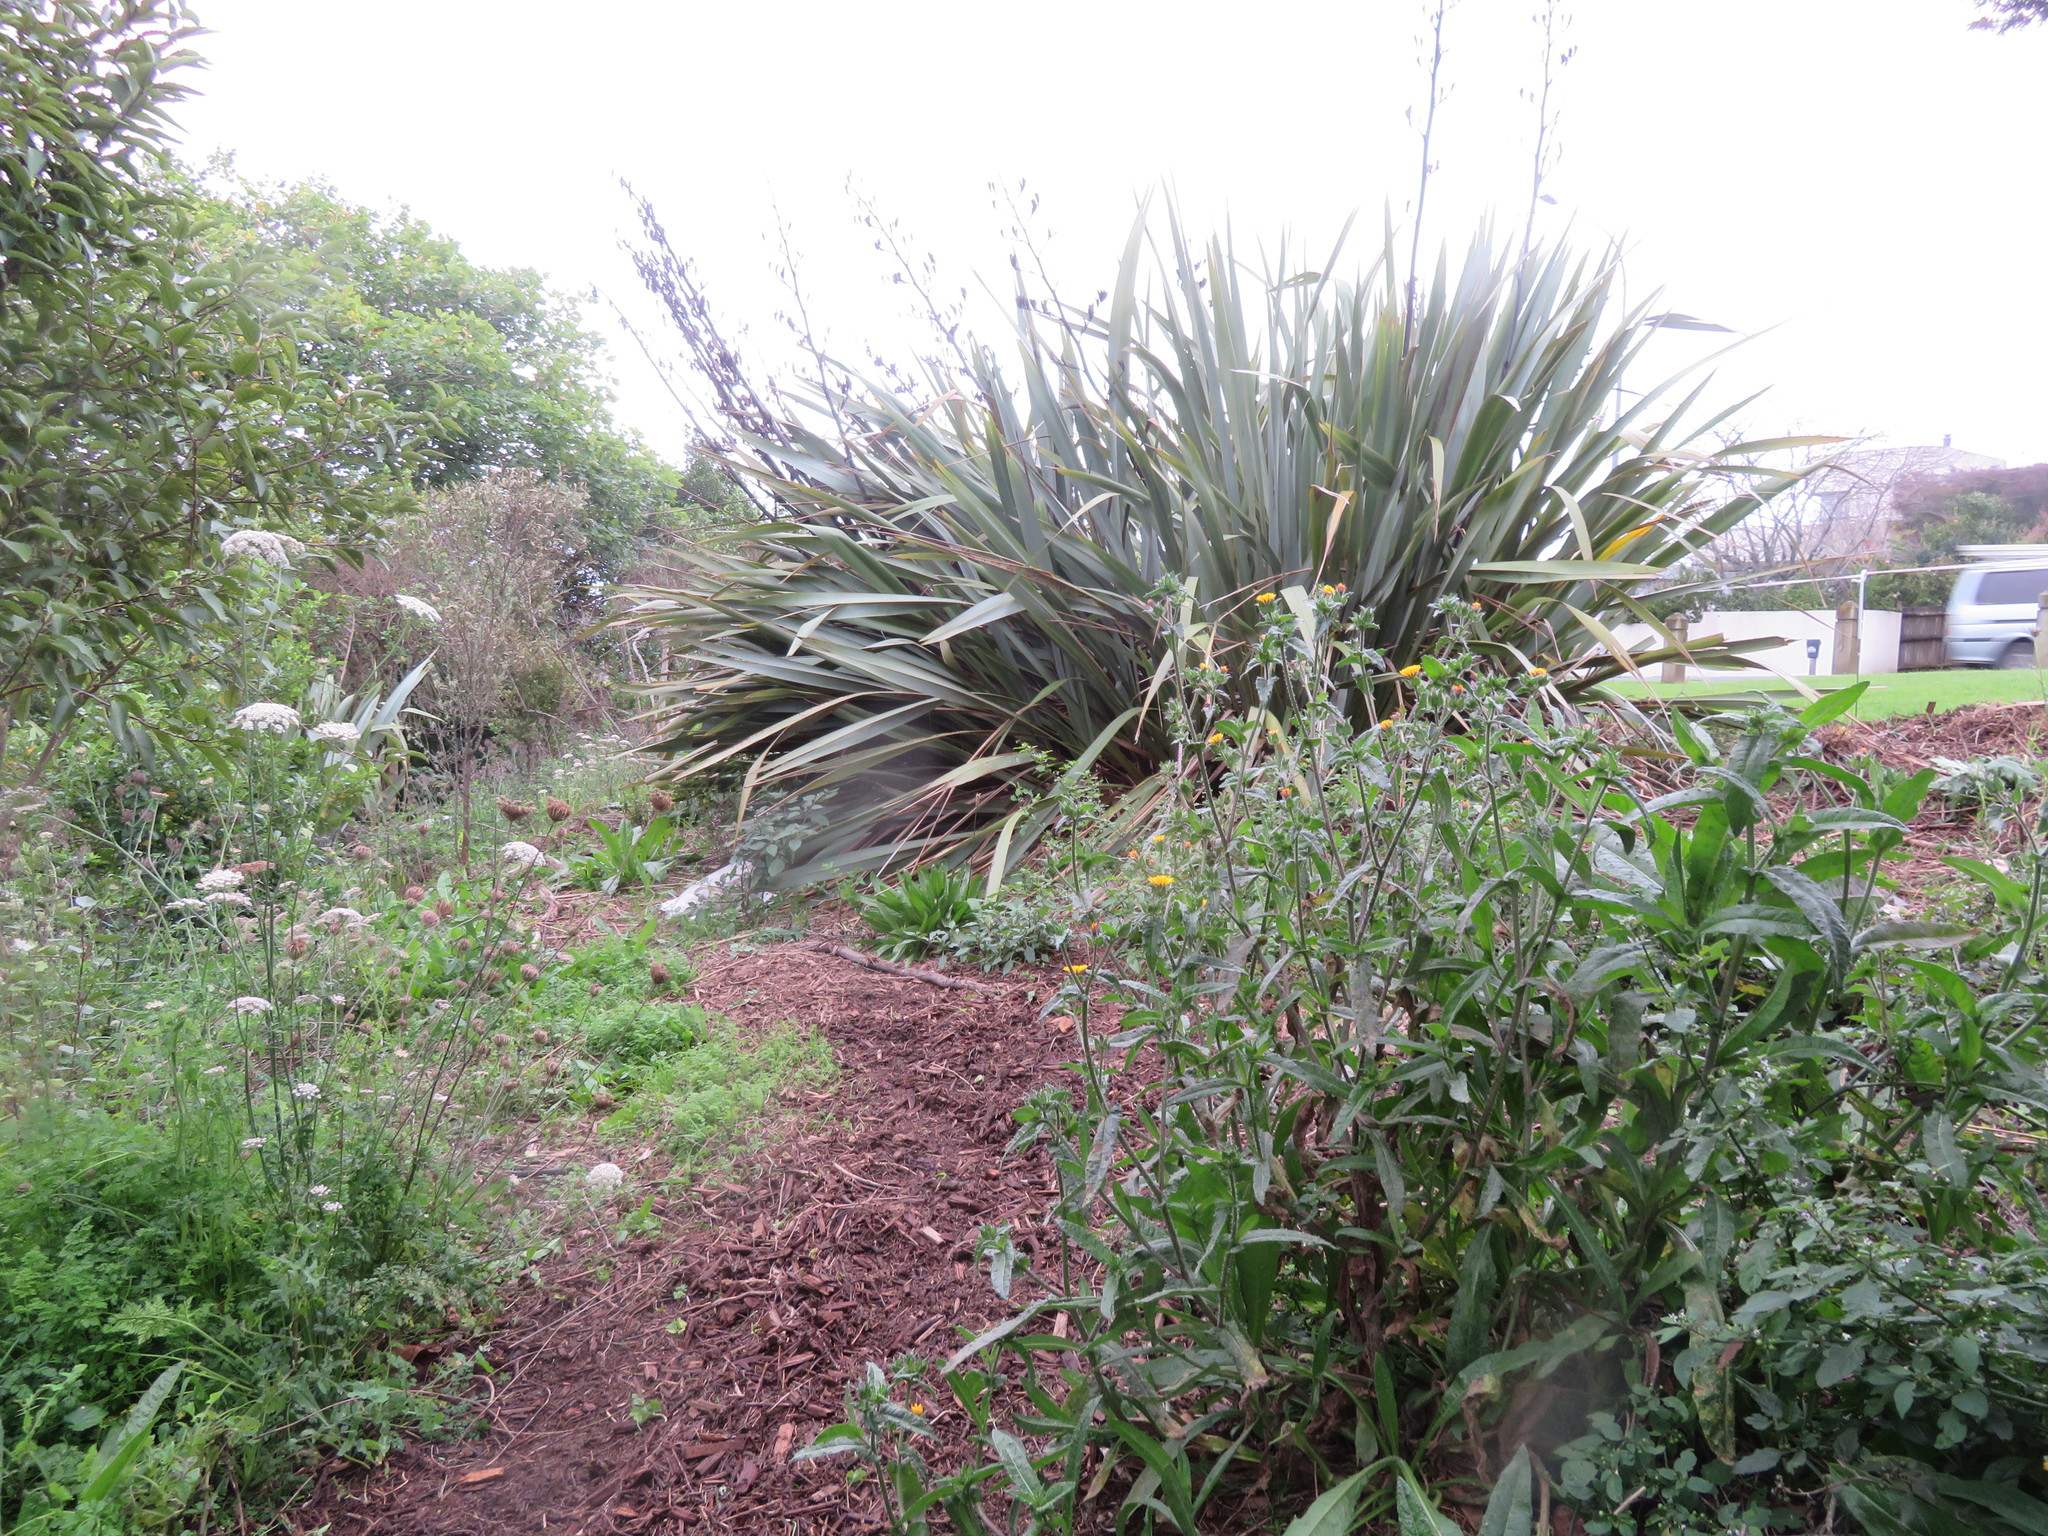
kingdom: Plantae
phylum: Tracheophyta
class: Magnoliopsida
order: Asterales
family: Asteraceae
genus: Helminthotheca
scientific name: Helminthotheca echioides
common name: Ox-tongue
